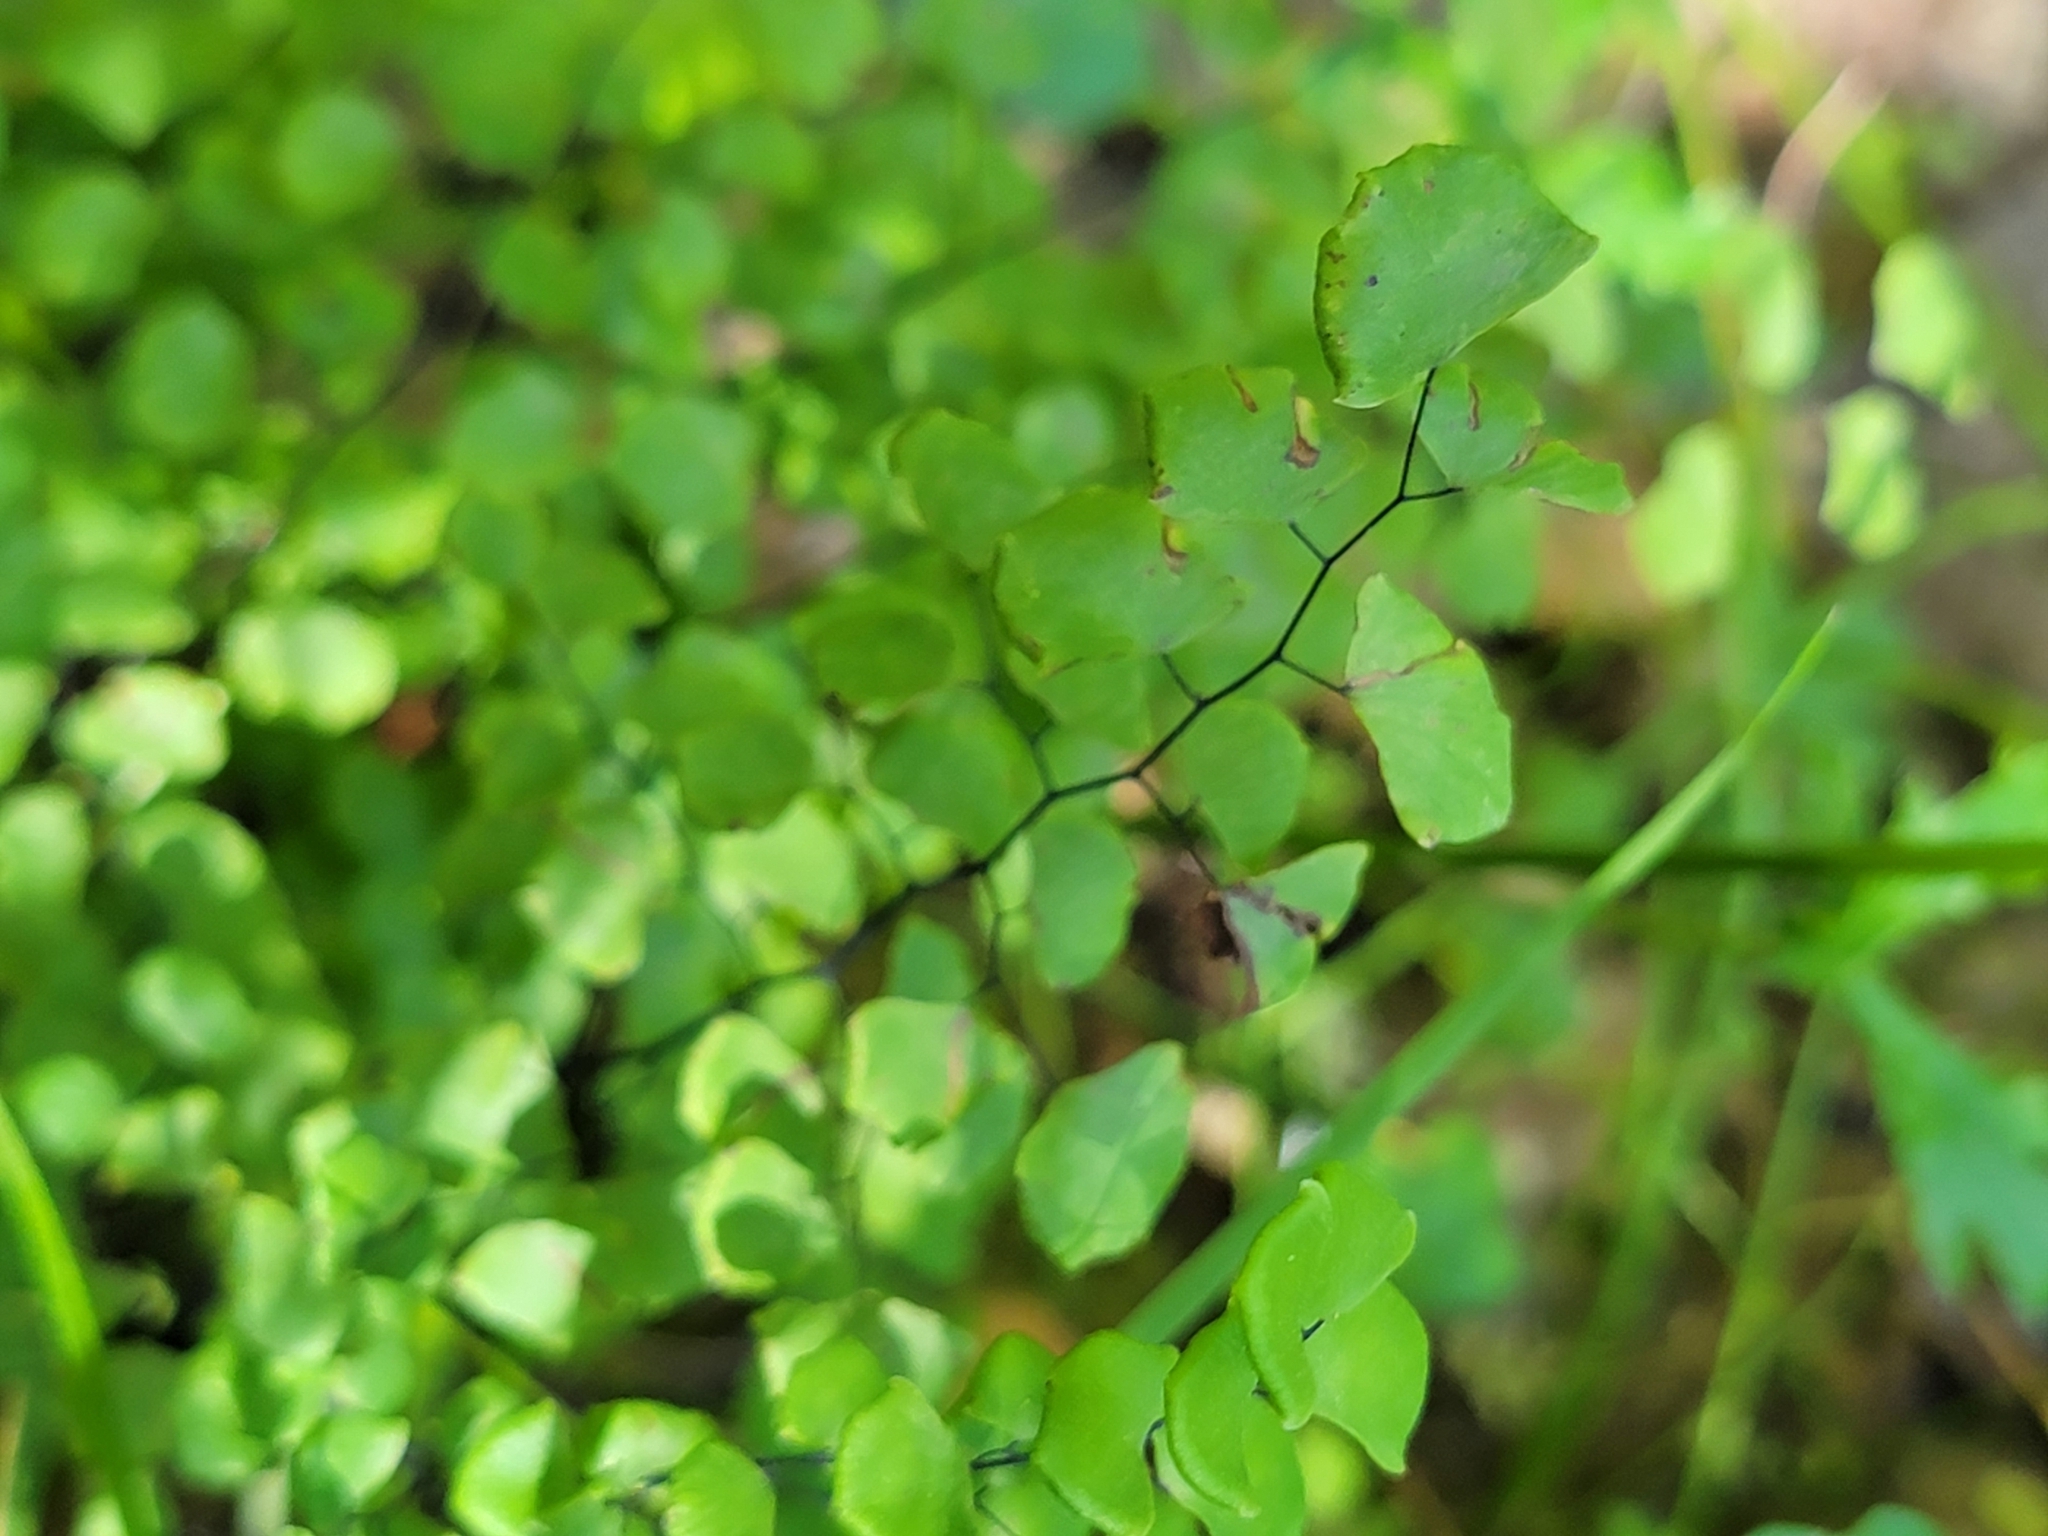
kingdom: Plantae
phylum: Tracheophyta
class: Polypodiopsida
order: Polypodiales
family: Pteridaceae
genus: Adiantum
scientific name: Adiantum jordanii
